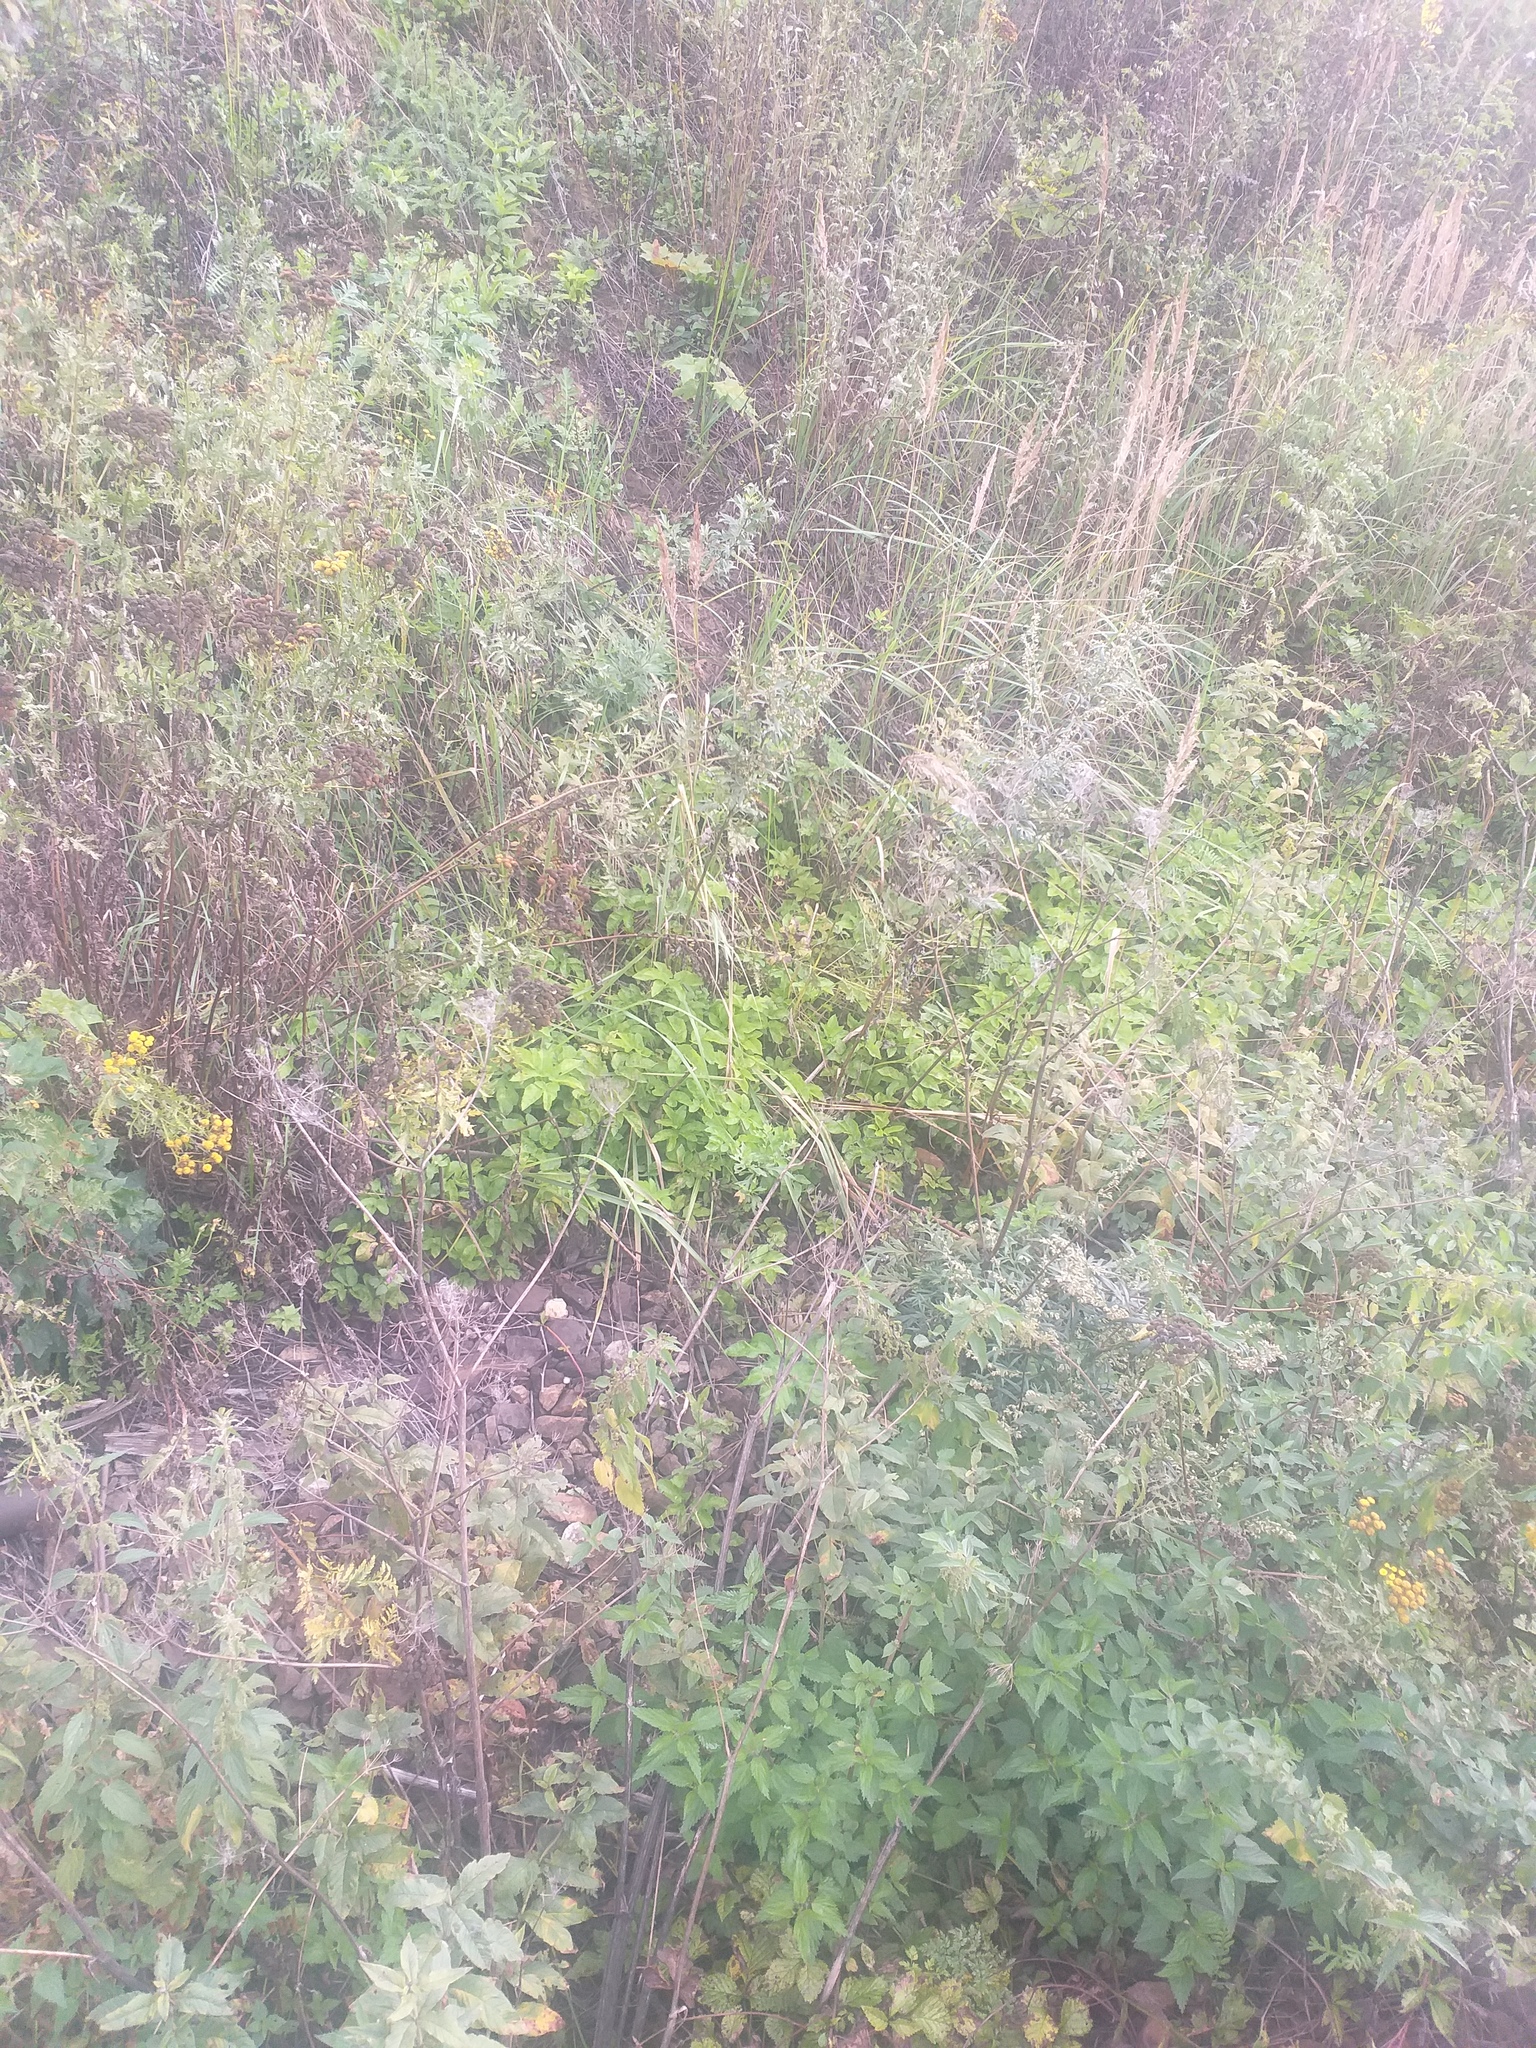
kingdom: Plantae
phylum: Tracheophyta
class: Magnoliopsida
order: Apiales
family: Apiaceae
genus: Aegopodium
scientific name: Aegopodium podagraria
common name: Ground-elder
